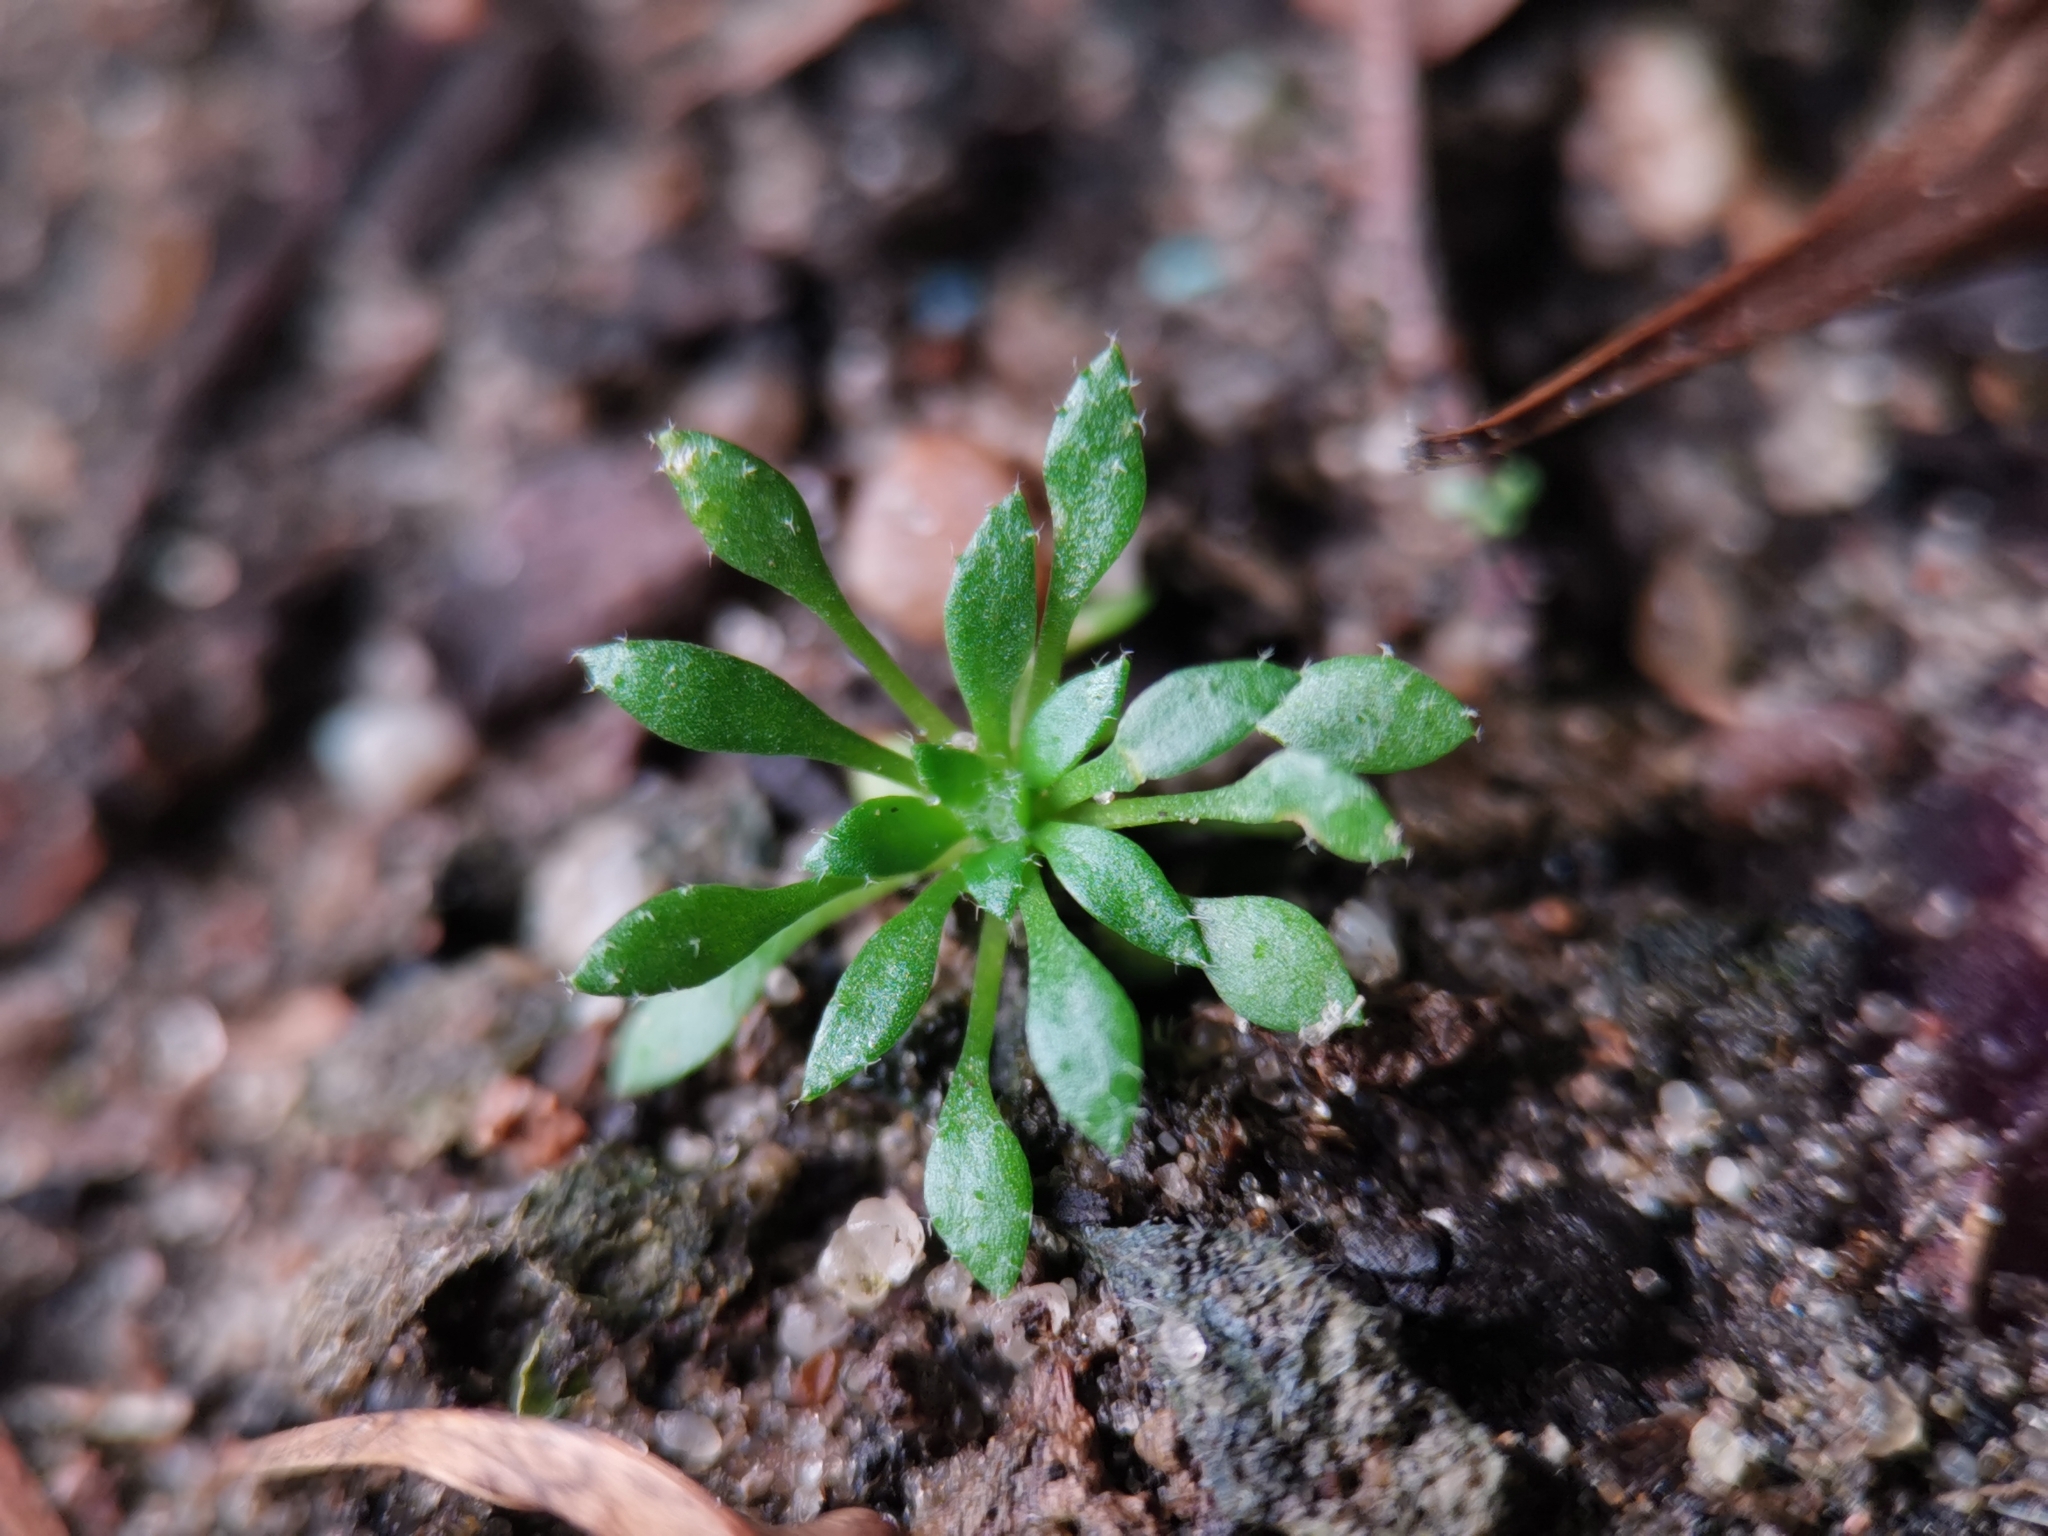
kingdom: Plantae
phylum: Tracheophyta
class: Magnoliopsida
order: Brassicales
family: Brassicaceae
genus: Draba
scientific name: Draba verna
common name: Spring draba
